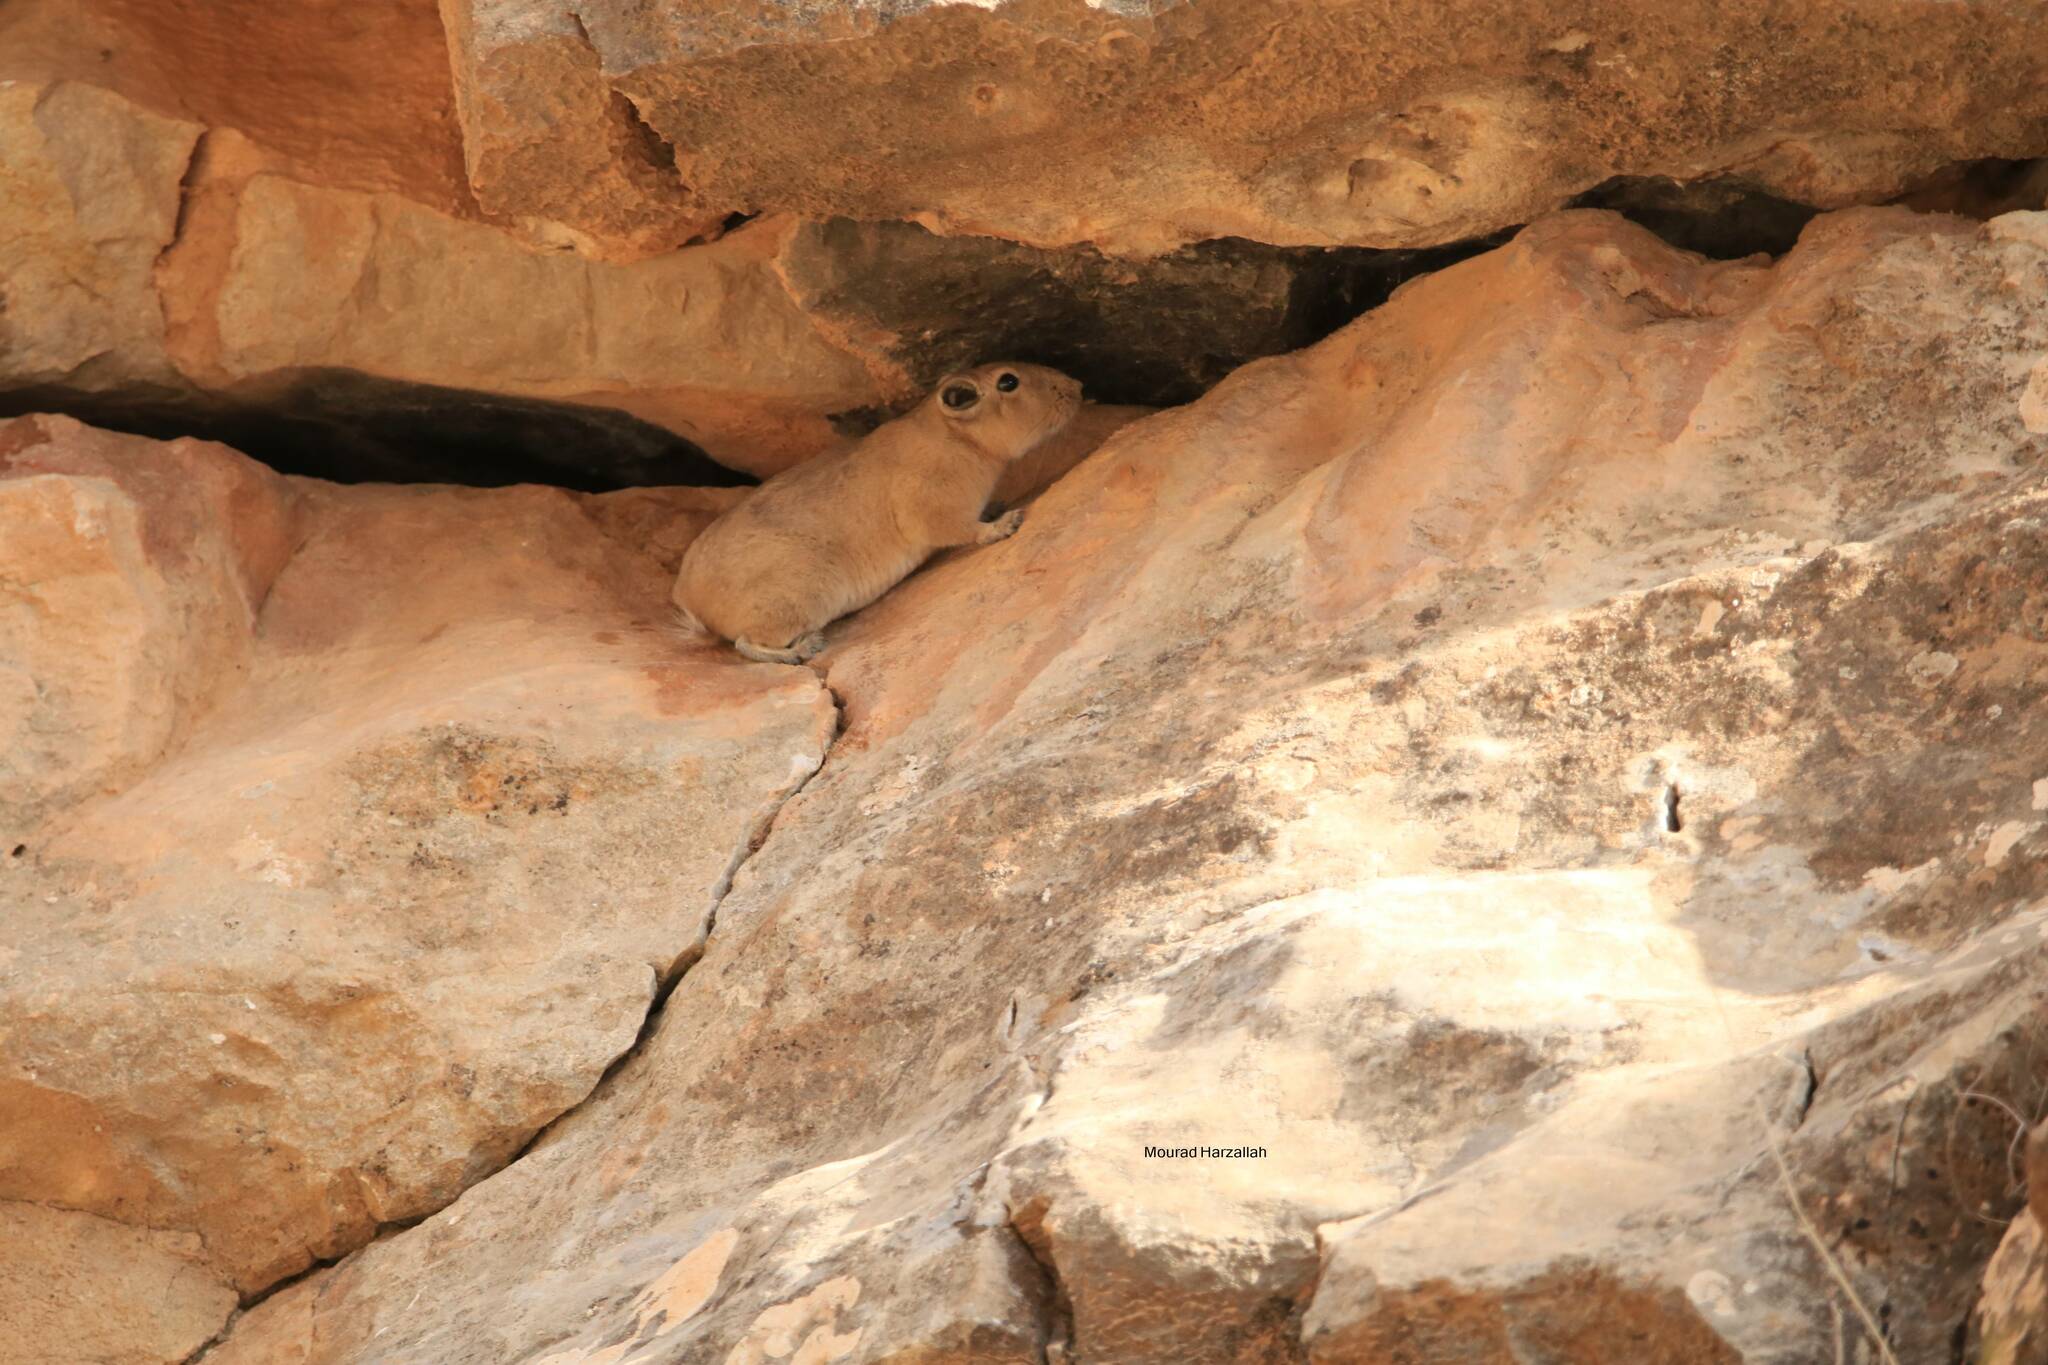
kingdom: Animalia
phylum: Chordata
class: Mammalia
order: Rodentia
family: Ctenodactylidae
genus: Ctenodactylus
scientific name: Ctenodactylus gundi
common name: Common gundi
